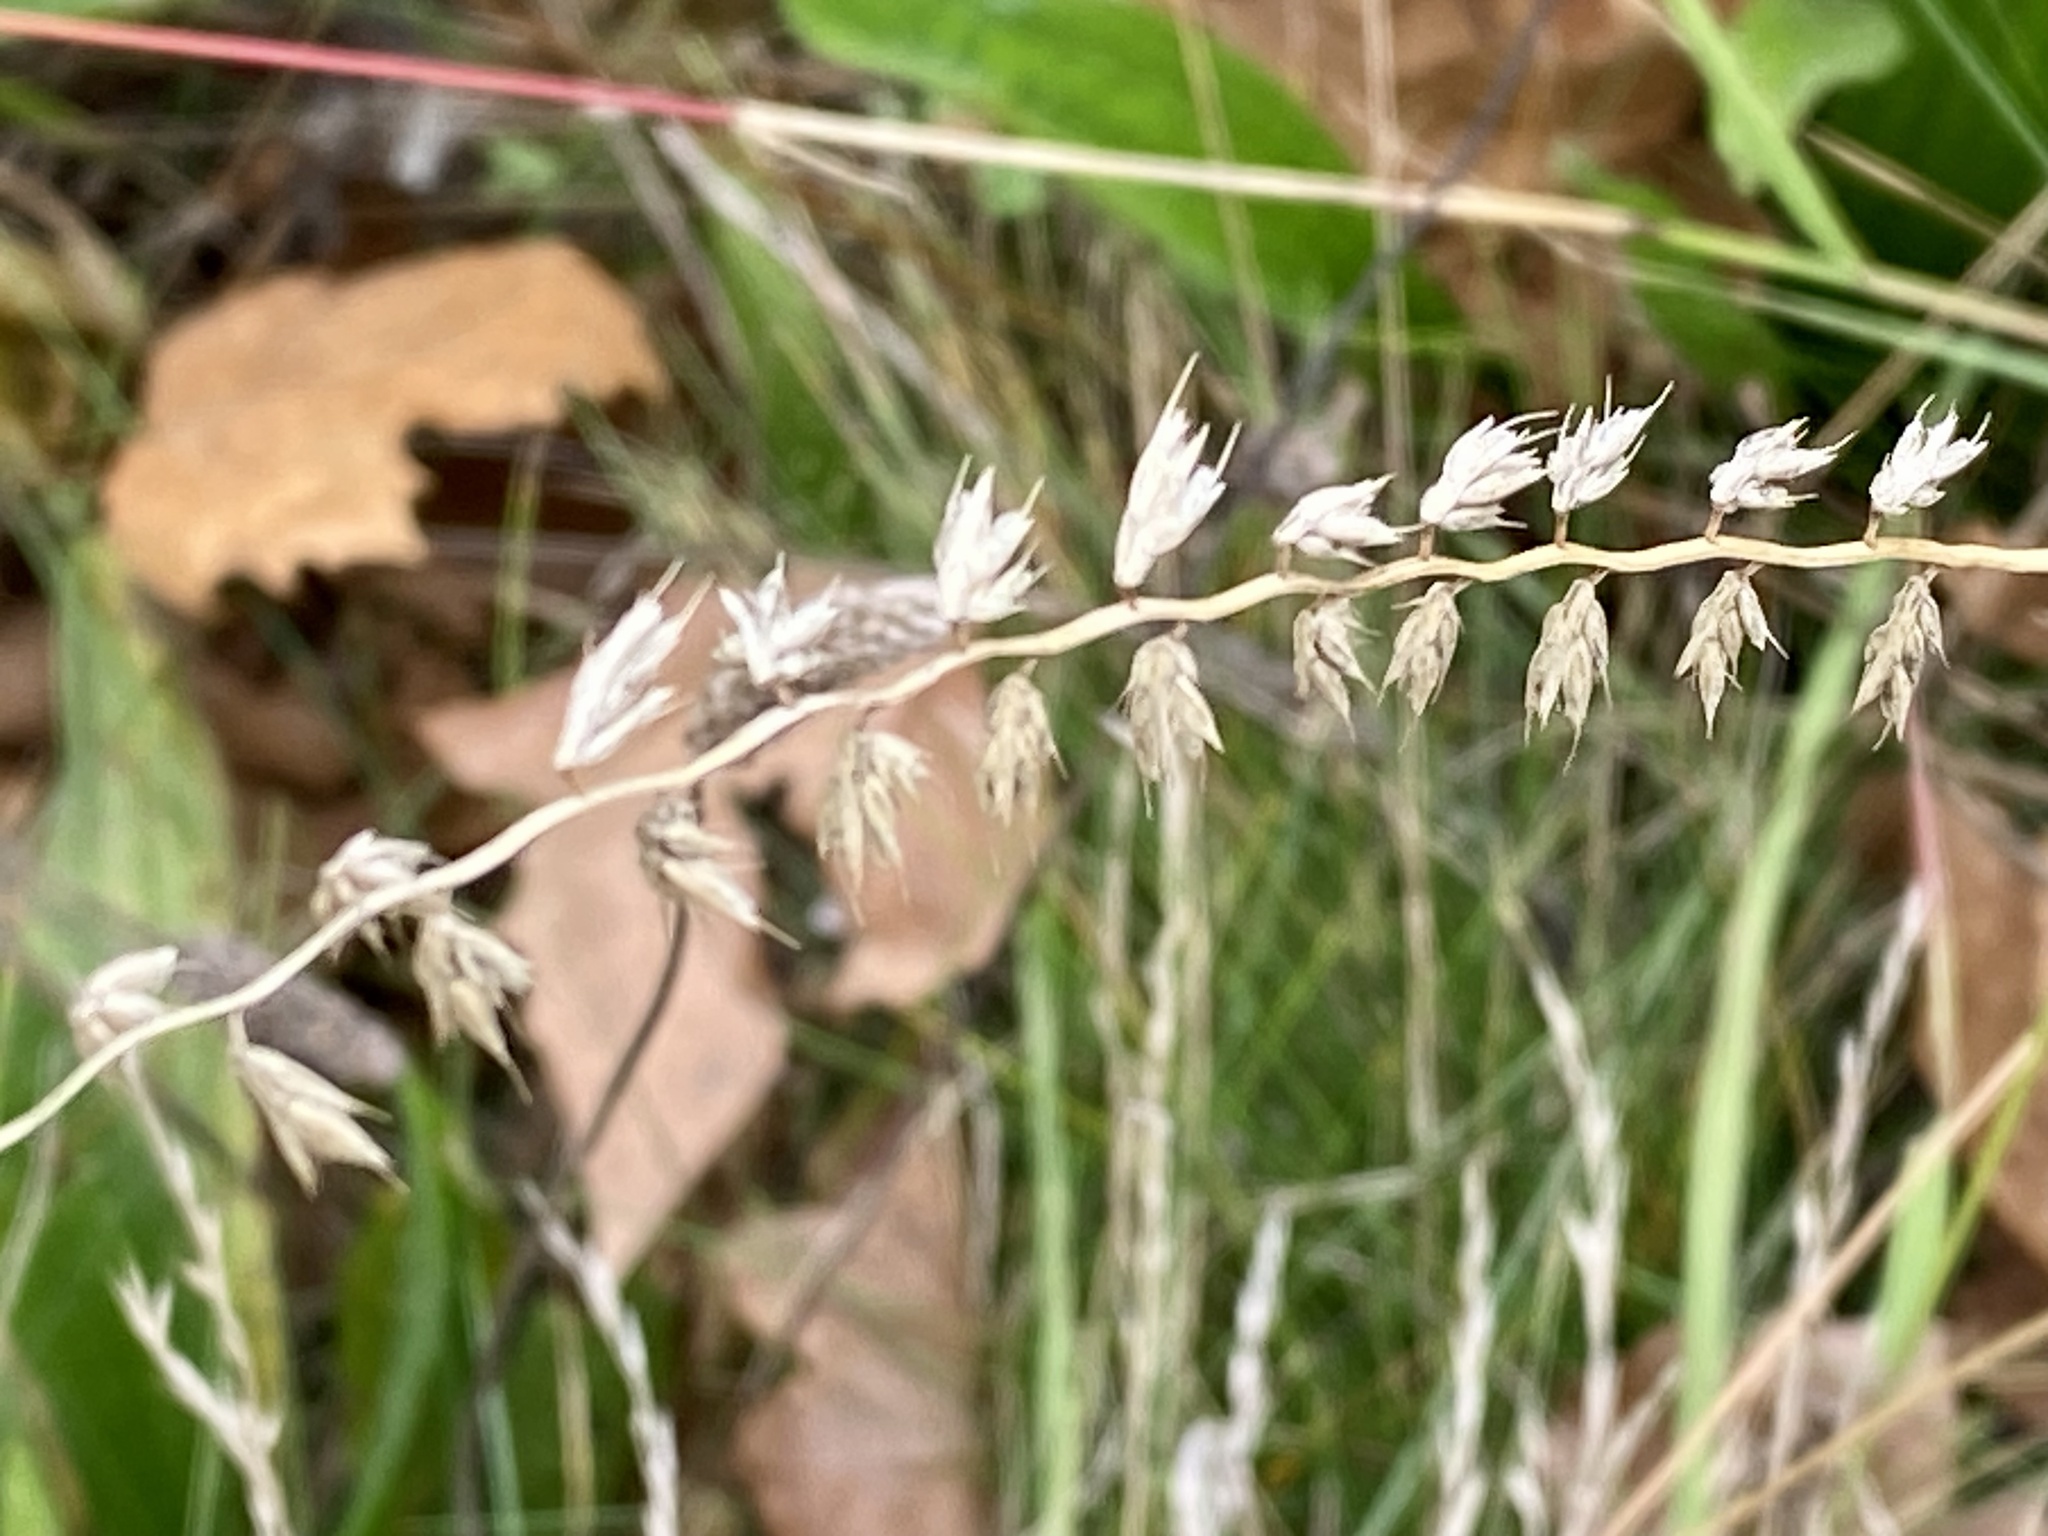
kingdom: Plantae
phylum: Tracheophyta
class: Liliopsida
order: Poales
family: Poaceae
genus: Bouteloua
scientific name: Bouteloua curtipendula
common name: Side-oats grama
